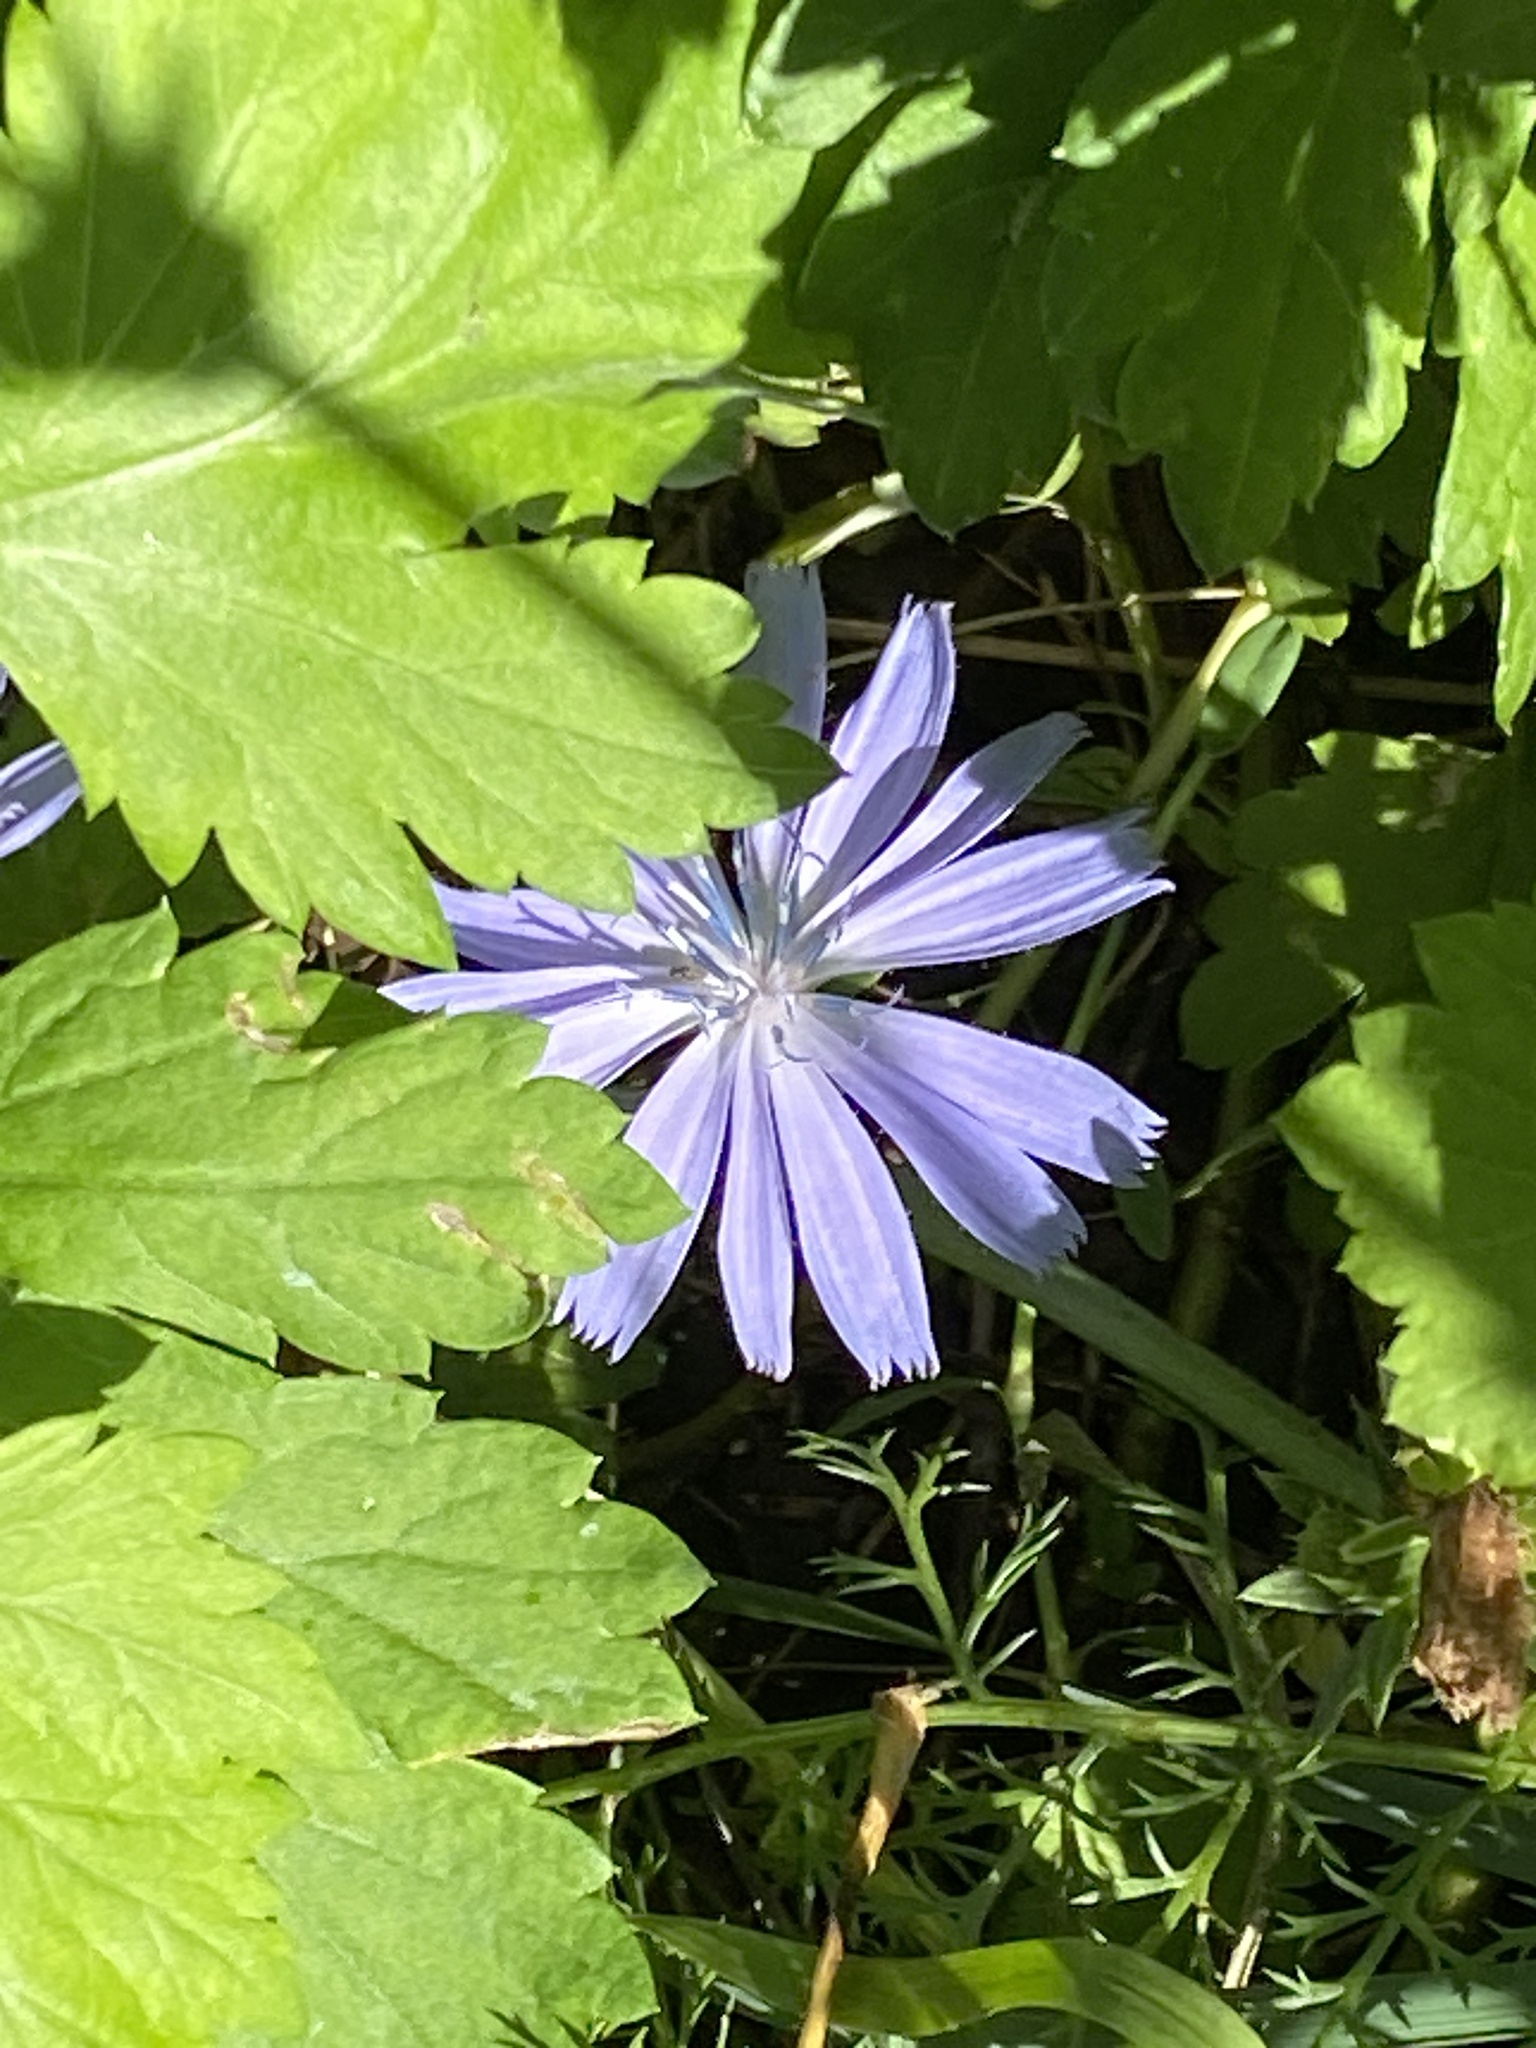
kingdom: Plantae
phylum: Tracheophyta
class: Magnoliopsida
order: Asterales
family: Asteraceae
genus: Cichorium
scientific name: Cichorium intybus
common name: Chicory
